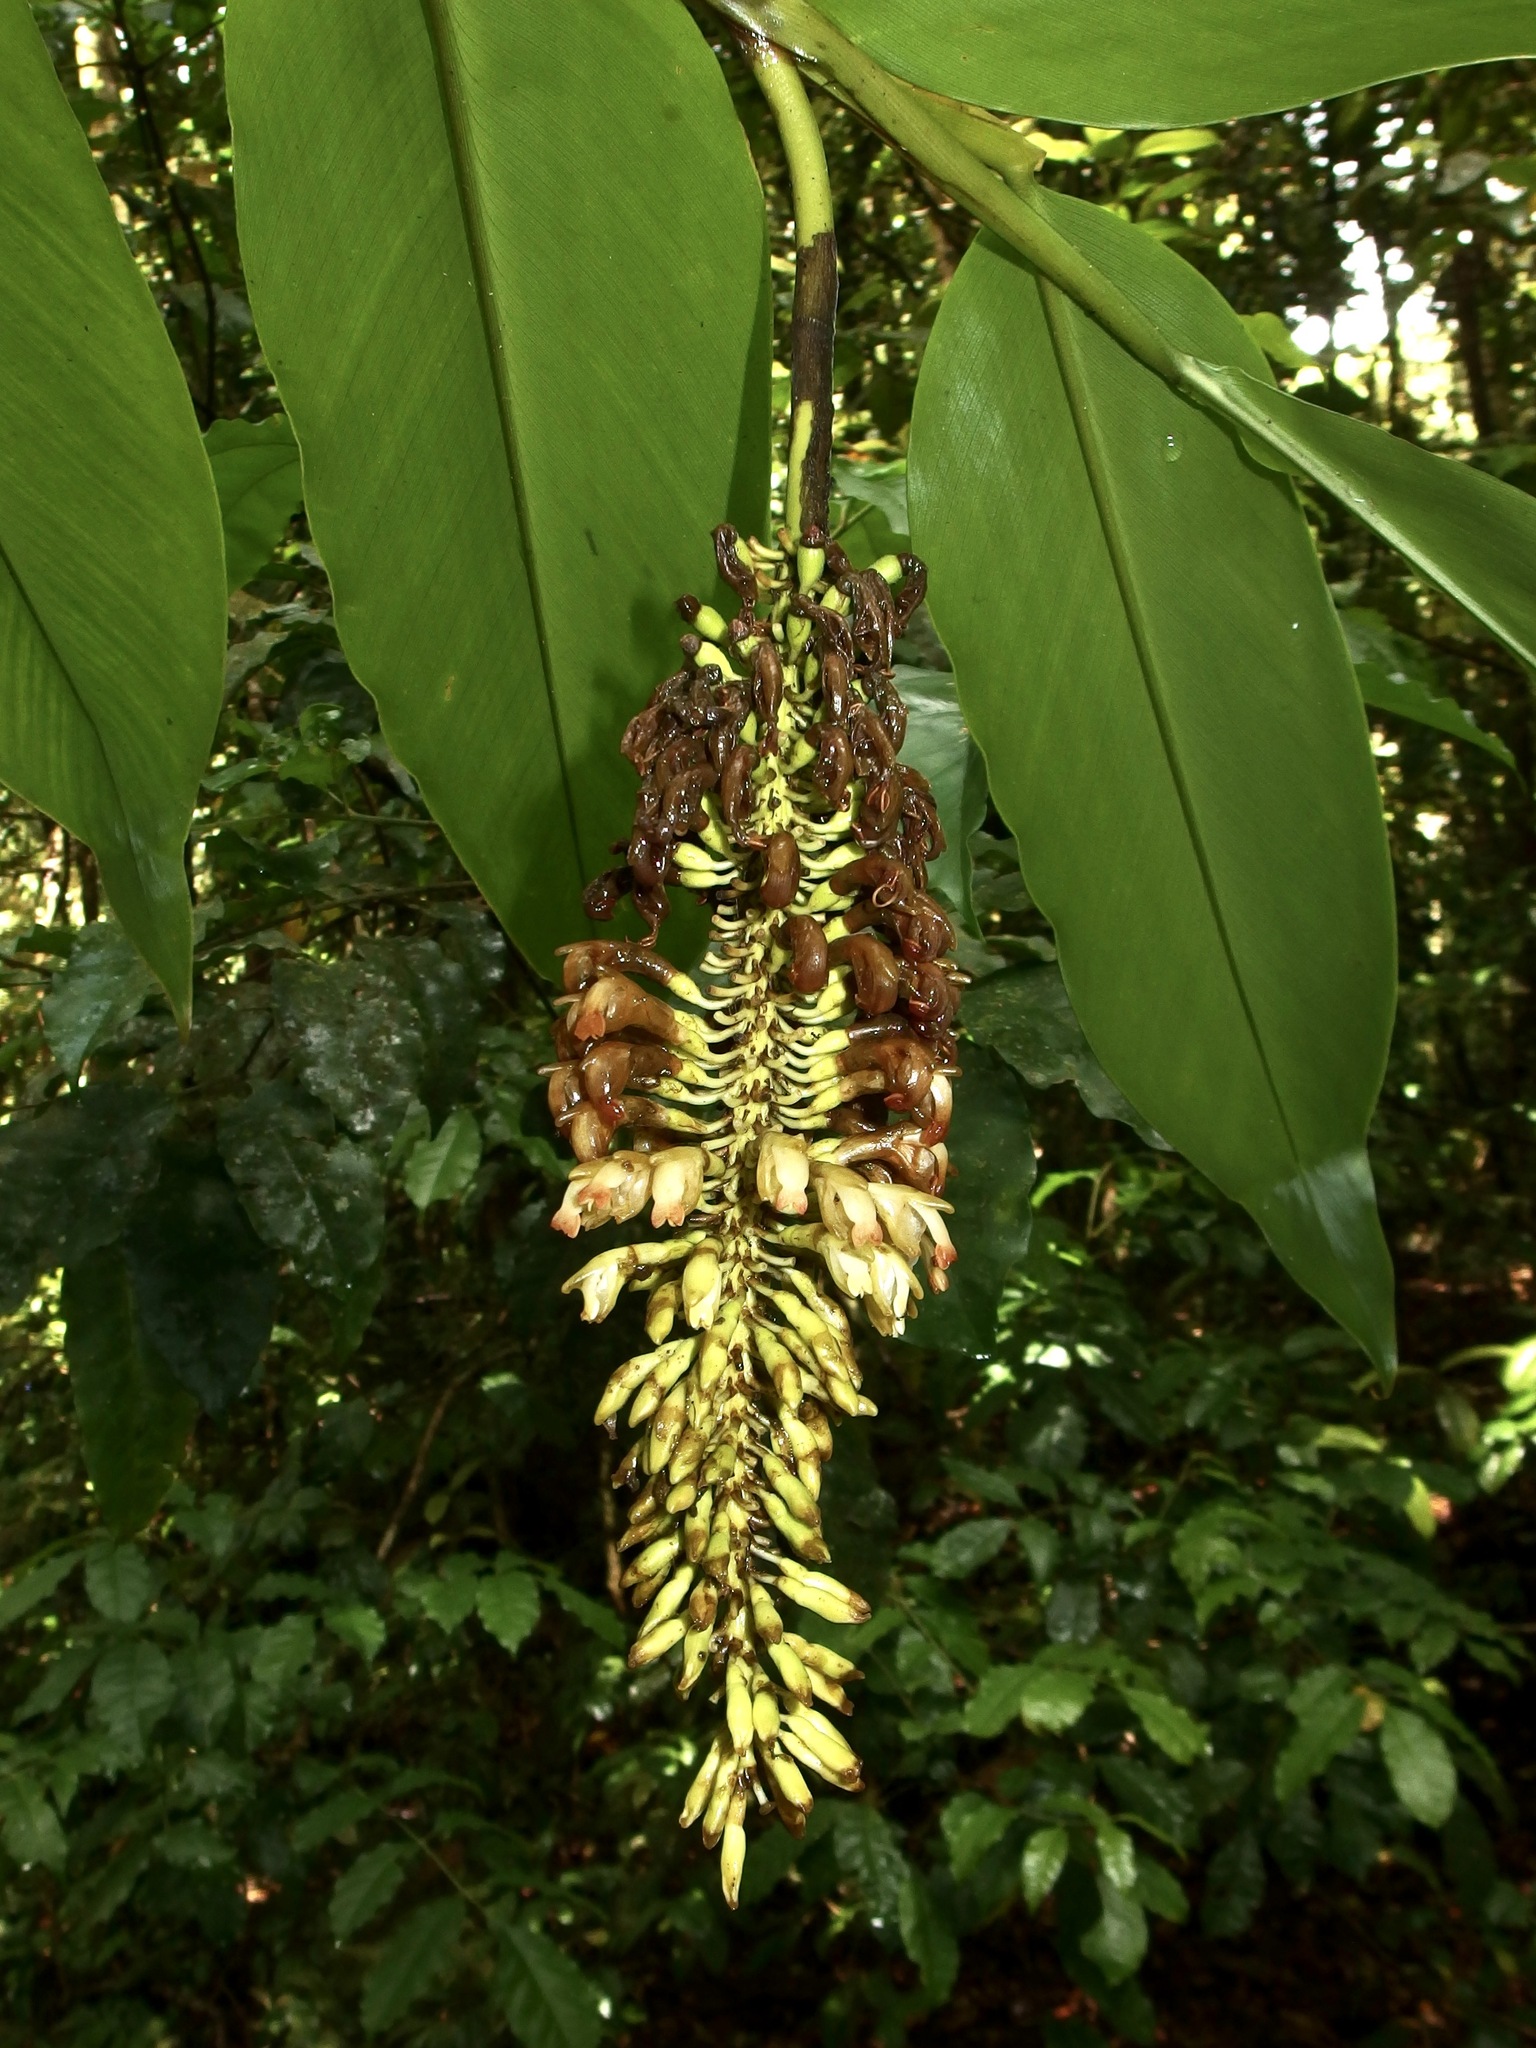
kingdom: Plantae
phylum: Tracheophyta
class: Liliopsida
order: Zingiberales
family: Zingiberaceae
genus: Pleuranthodium
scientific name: Pleuranthodium racemigerum
